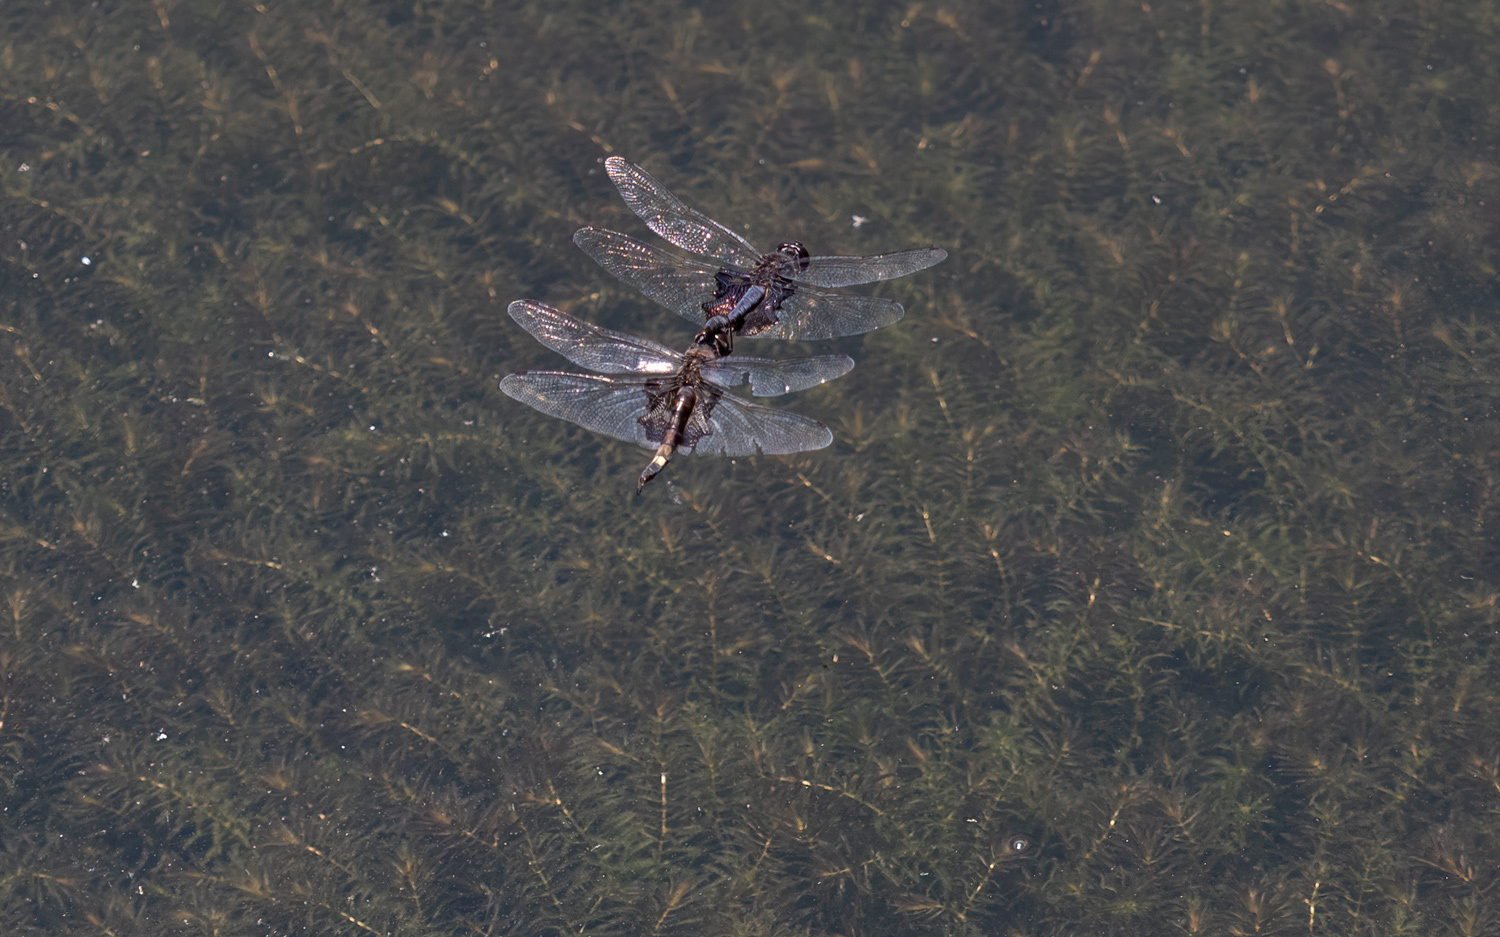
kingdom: Animalia
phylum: Arthropoda
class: Insecta
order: Odonata
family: Libellulidae
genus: Tramea
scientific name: Tramea lacerata
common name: Black saddlebags
